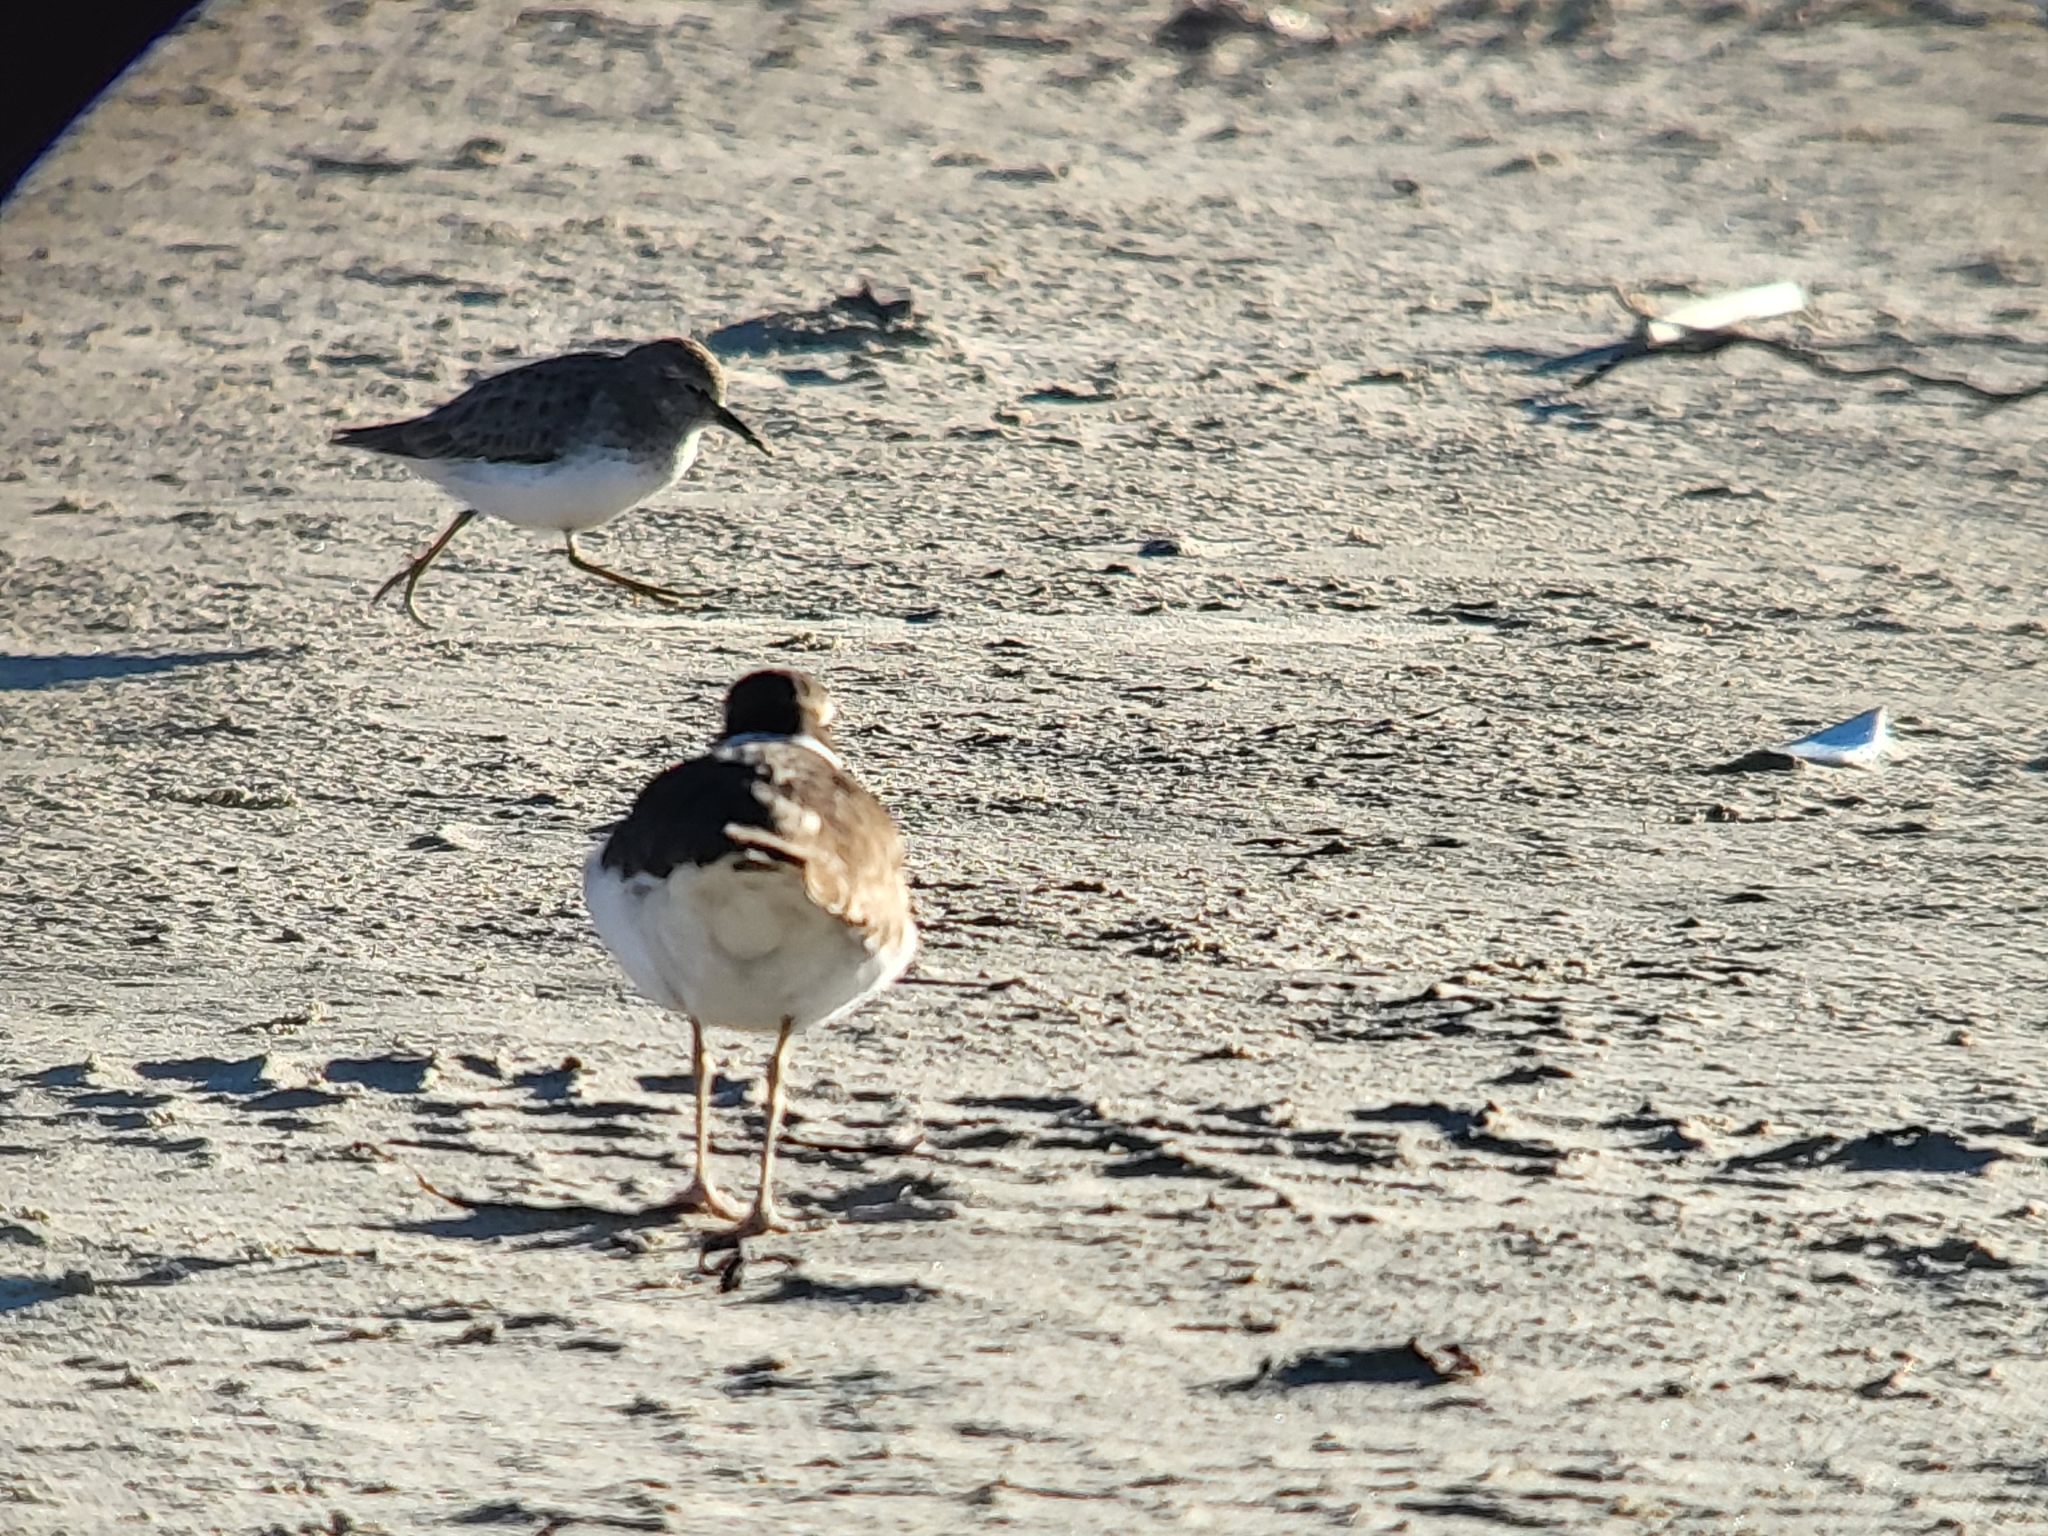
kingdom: Animalia
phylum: Chordata
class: Aves
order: Charadriiformes
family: Scolopacidae
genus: Calidris
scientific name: Calidris minutilla
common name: Least sandpiper
